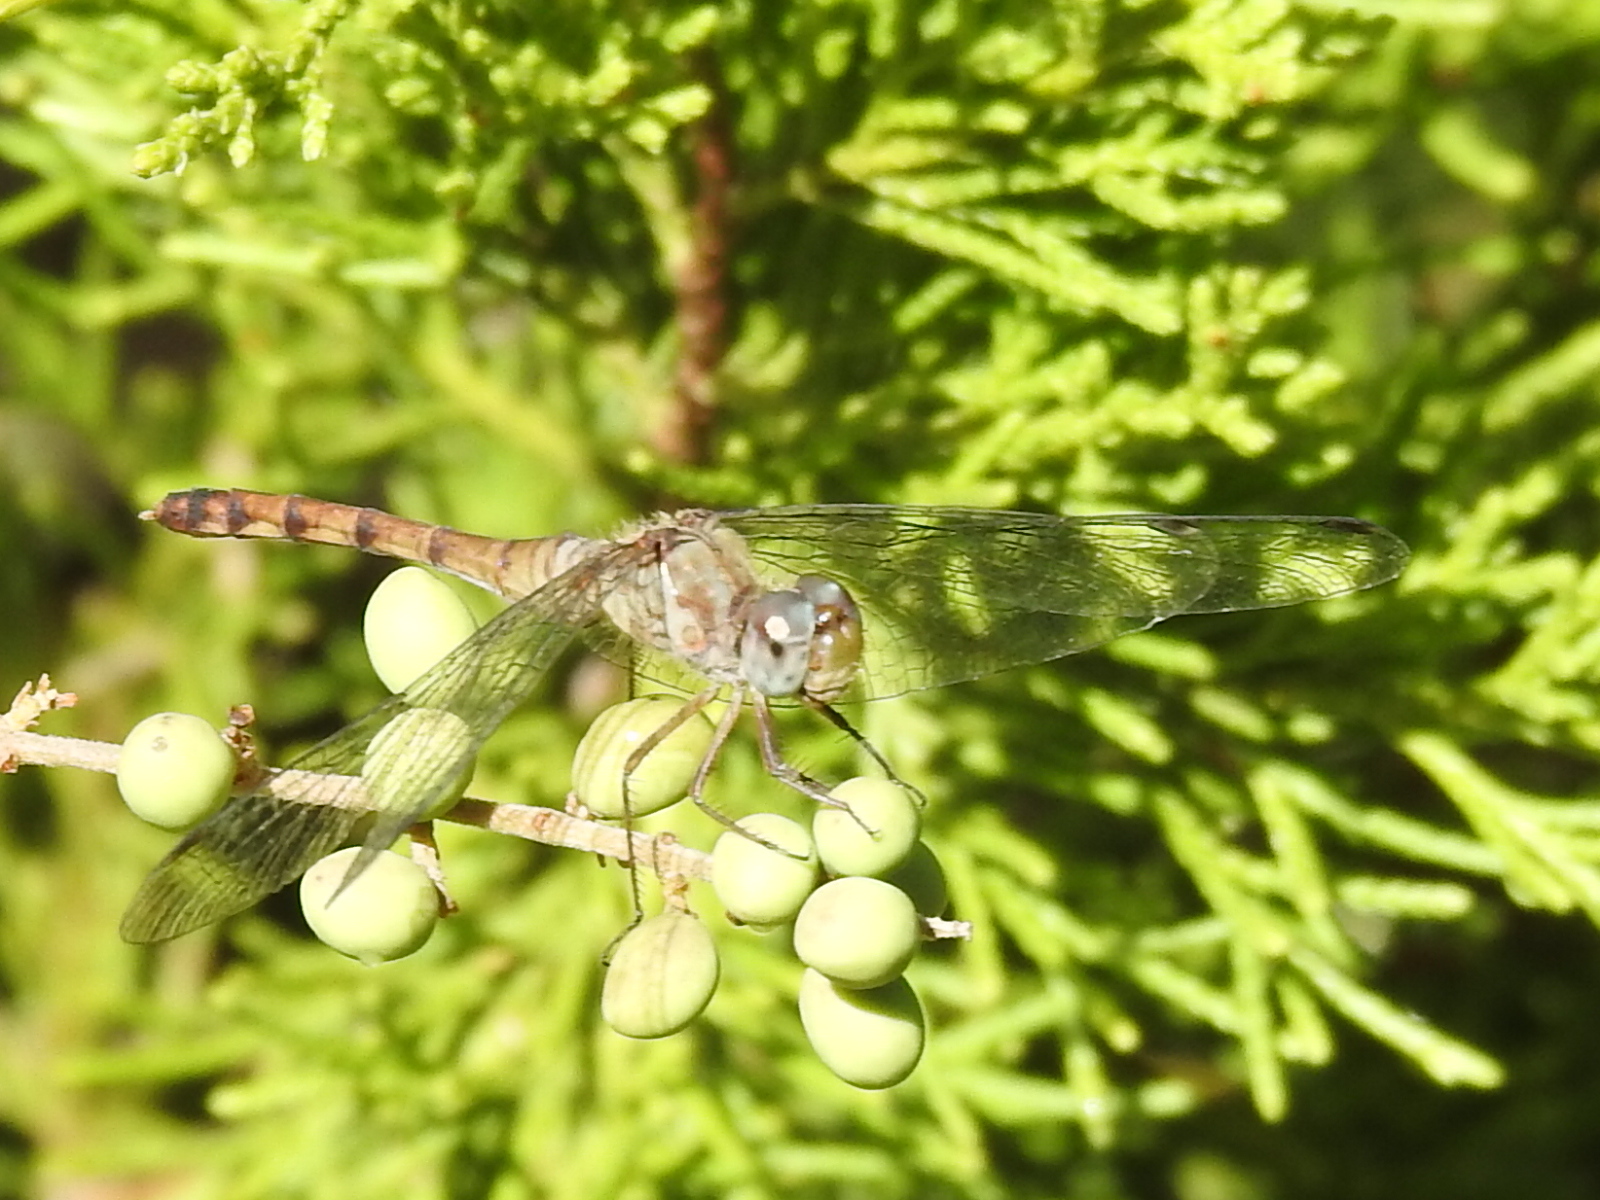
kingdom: Animalia
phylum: Arthropoda
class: Insecta
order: Odonata
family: Libellulidae
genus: Sympetrum
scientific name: Sympetrum ambiguum
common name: Blue-faced meadowhawk
